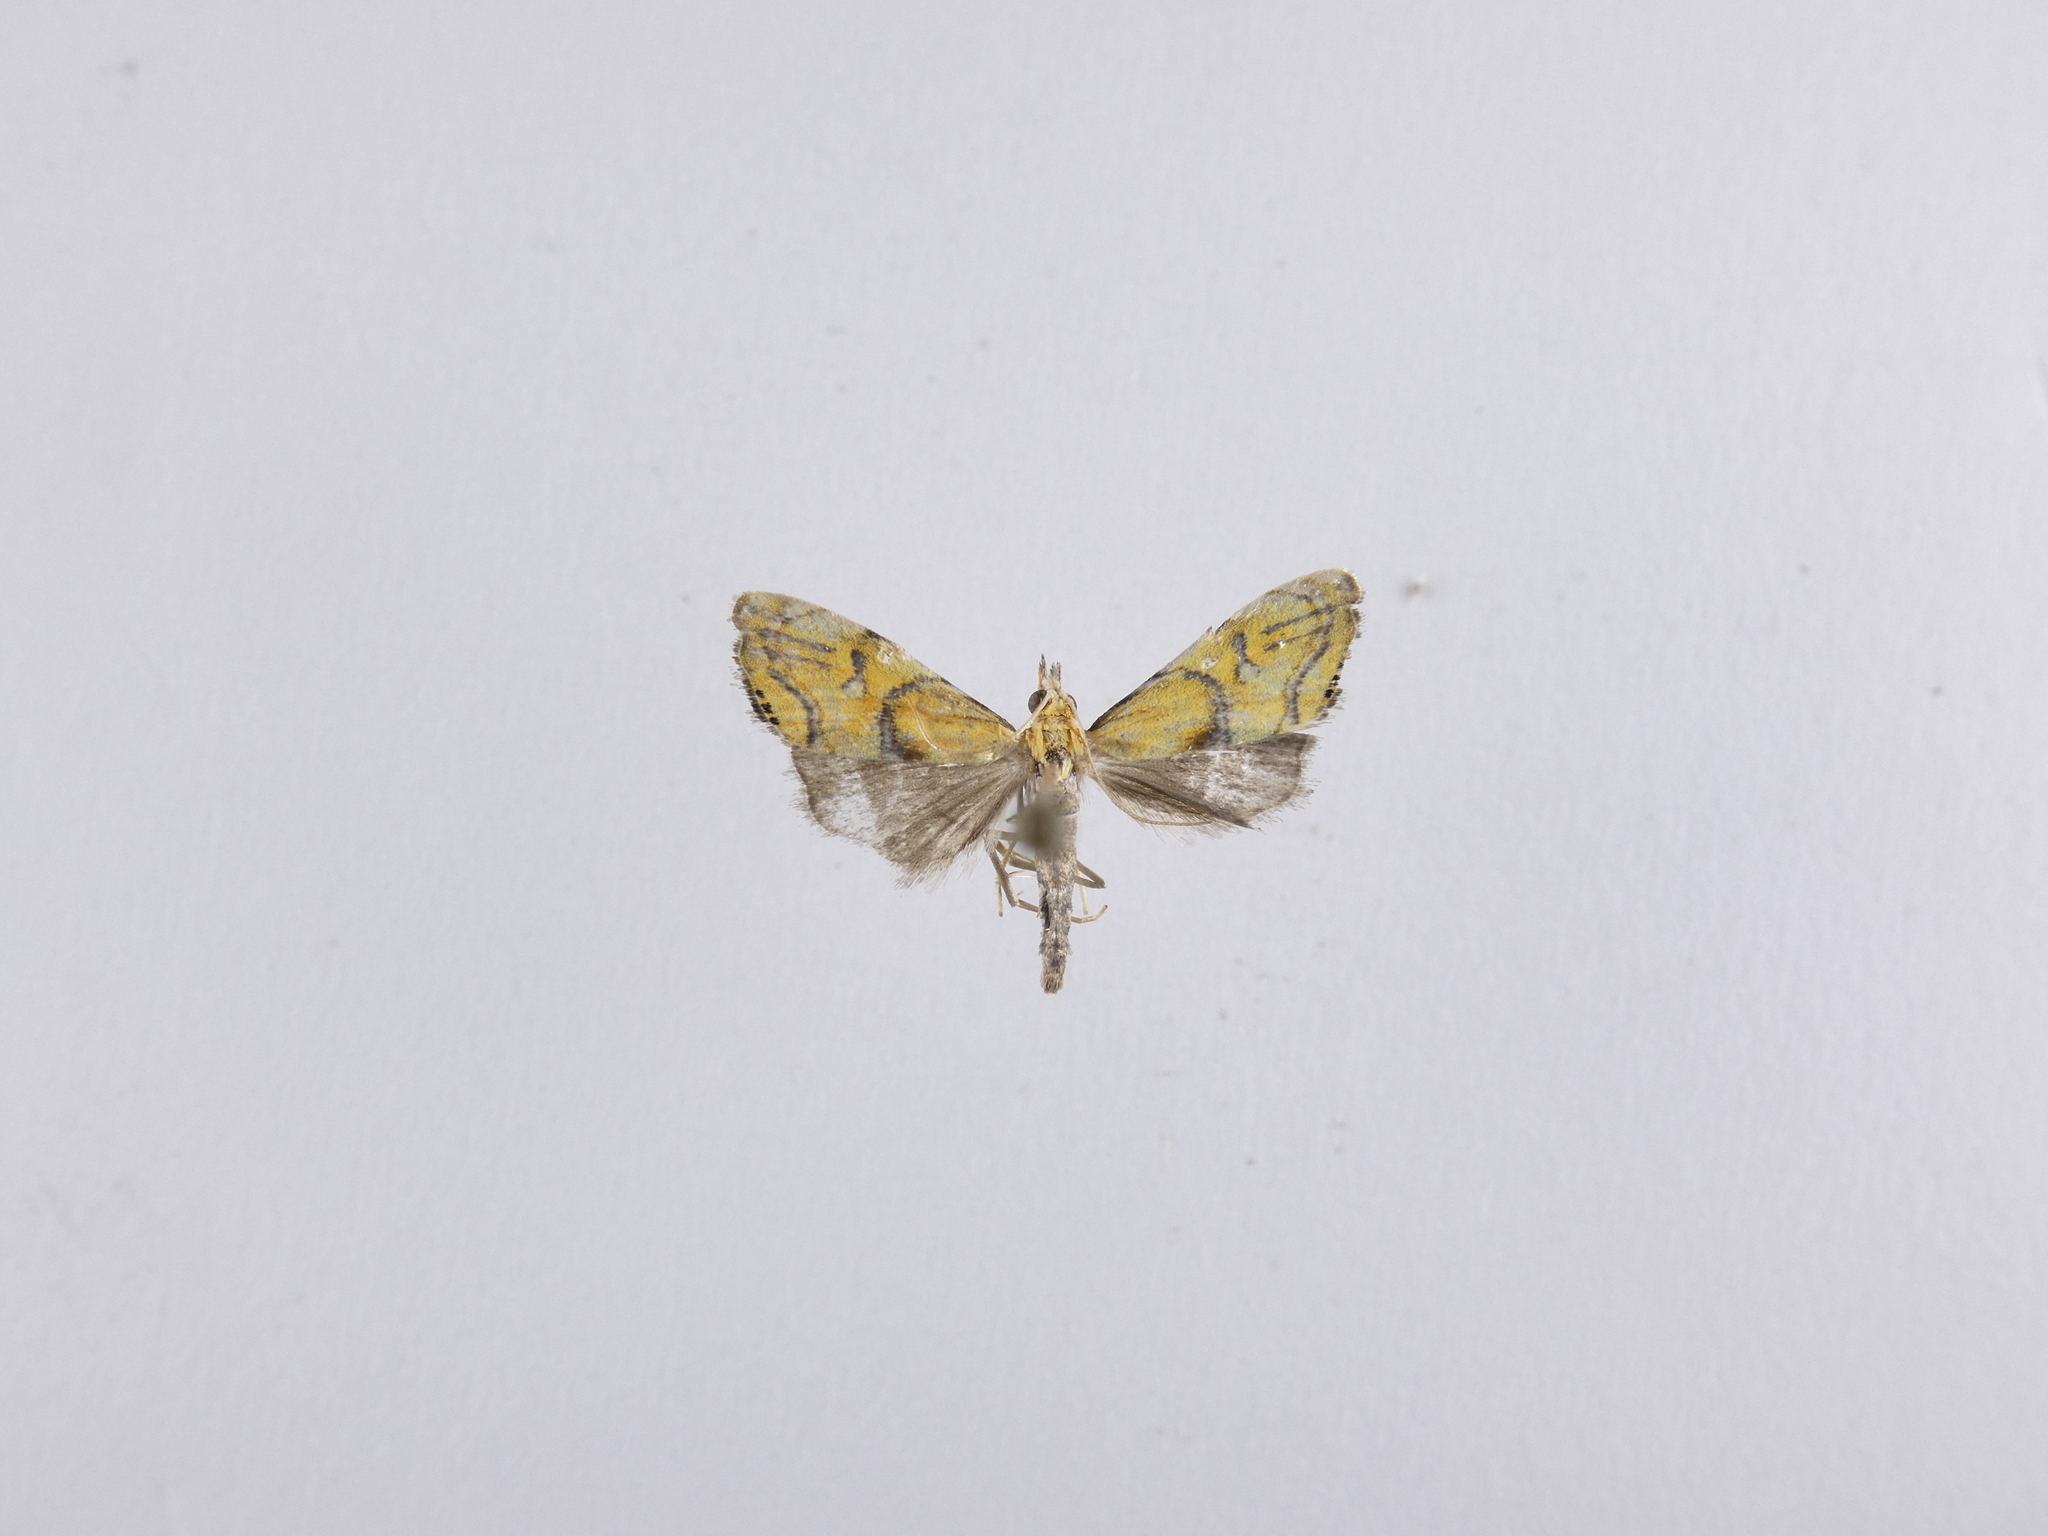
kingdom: Animalia
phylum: Arthropoda
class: Insecta
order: Lepidoptera
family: Crambidae
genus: Glaucocharis
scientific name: Glaucocharis auriscriptella
